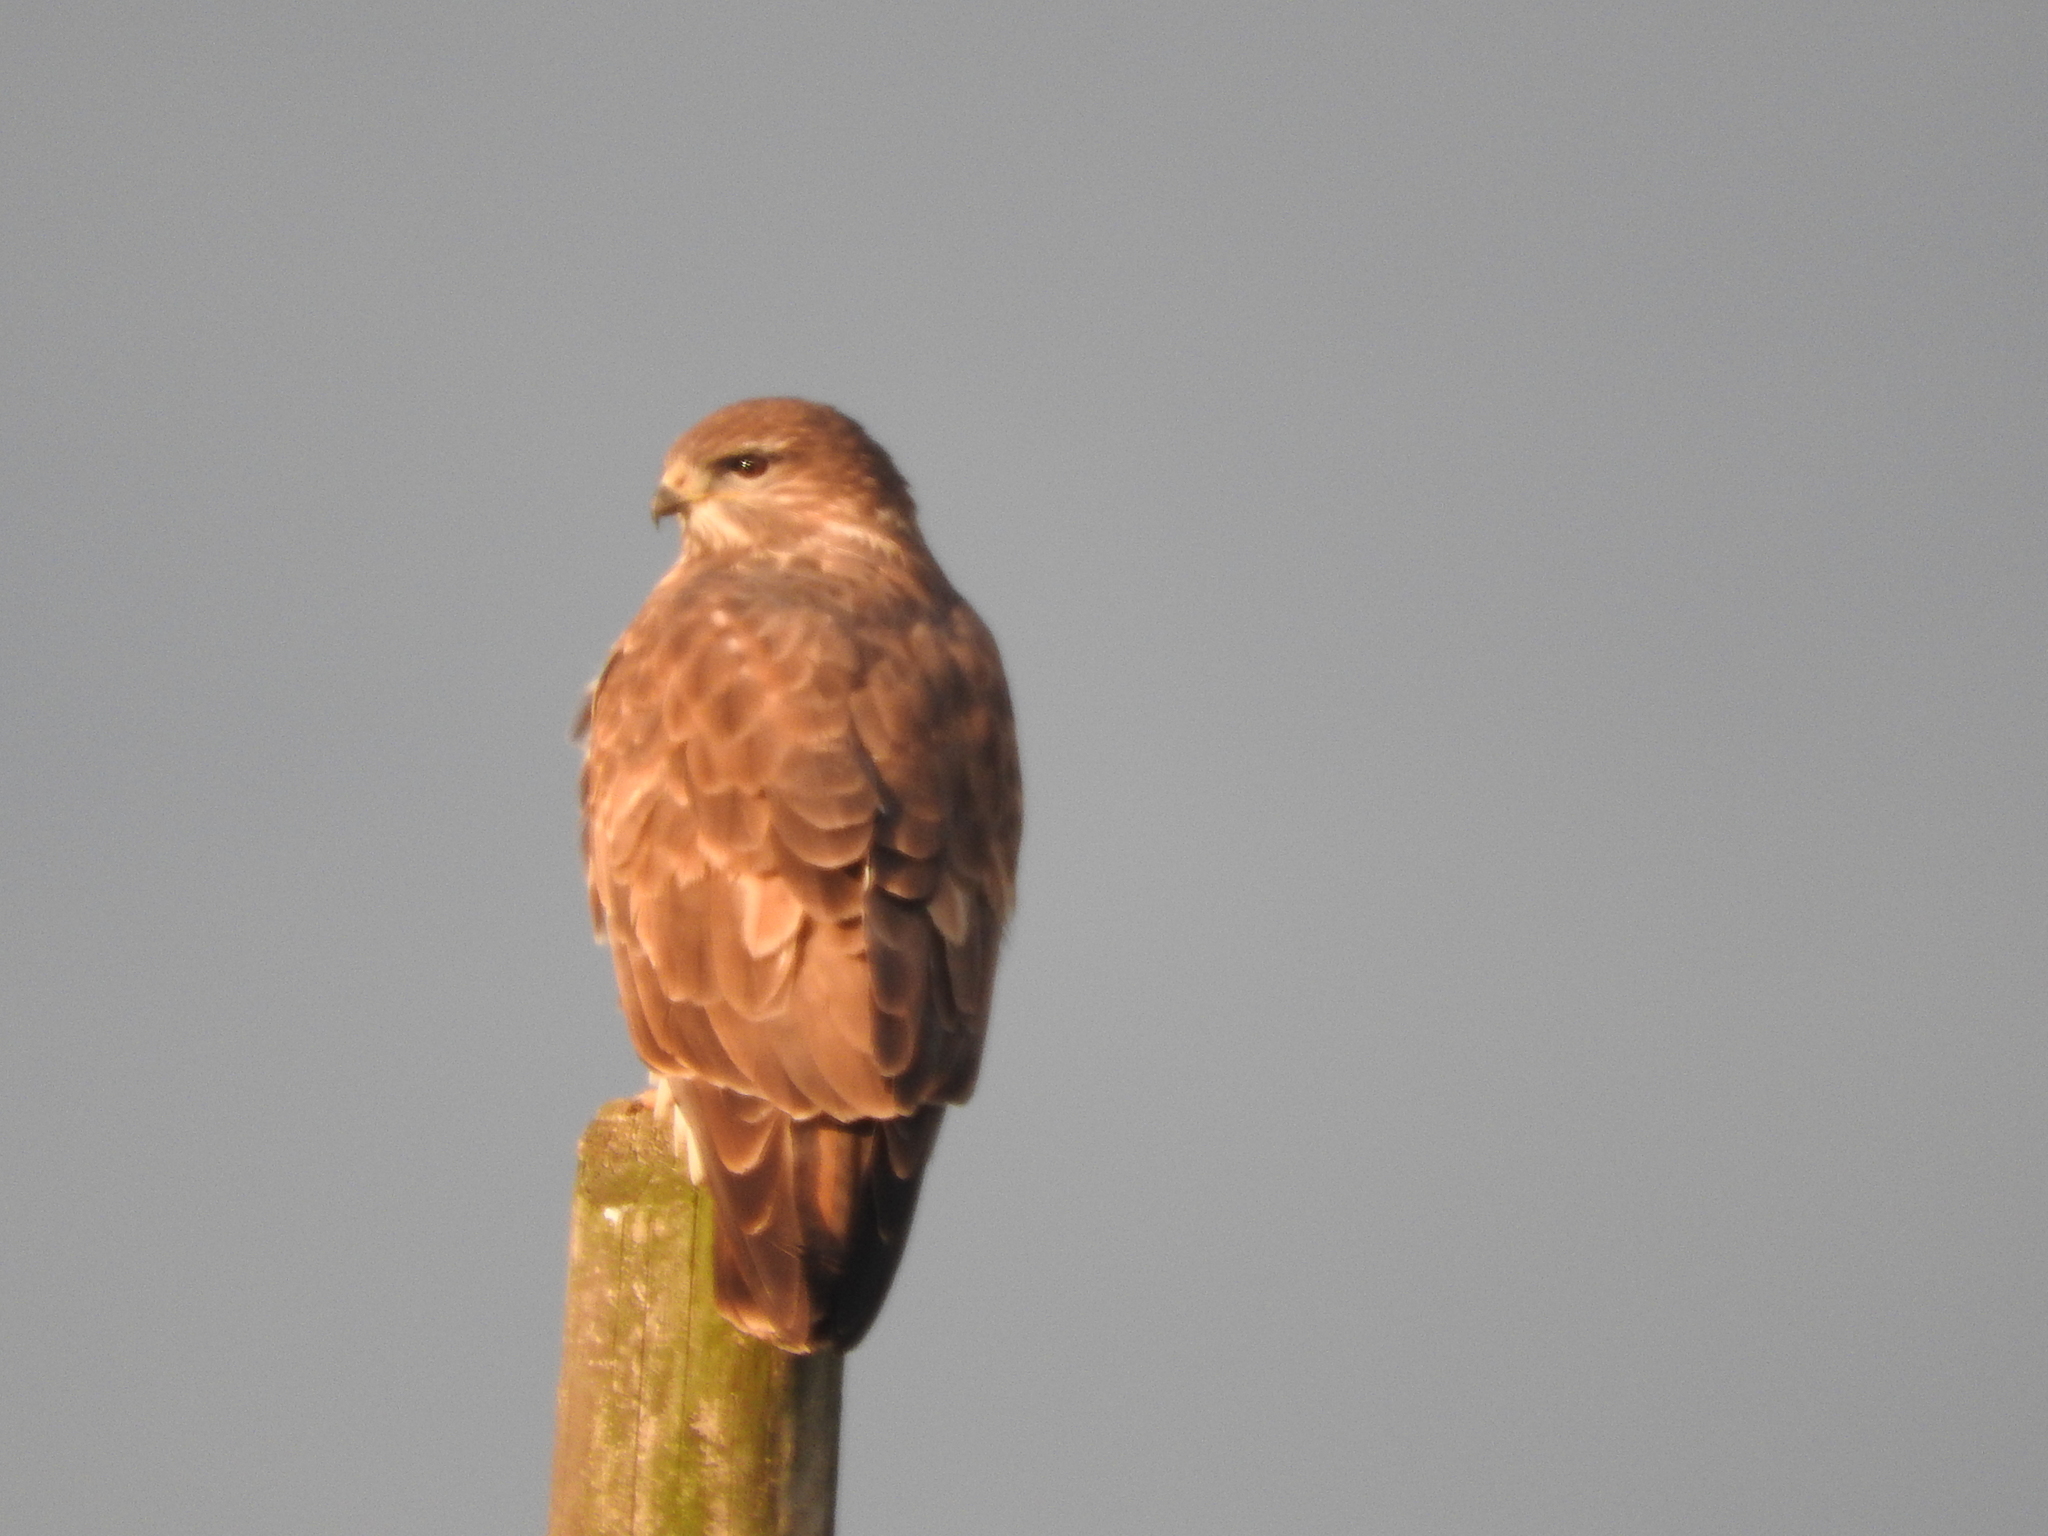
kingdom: Animalia
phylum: Chordata
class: Aves
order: Accipitriformes
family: Accipitridae
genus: Buteo
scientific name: Buteo buteo
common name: Common buzzard
